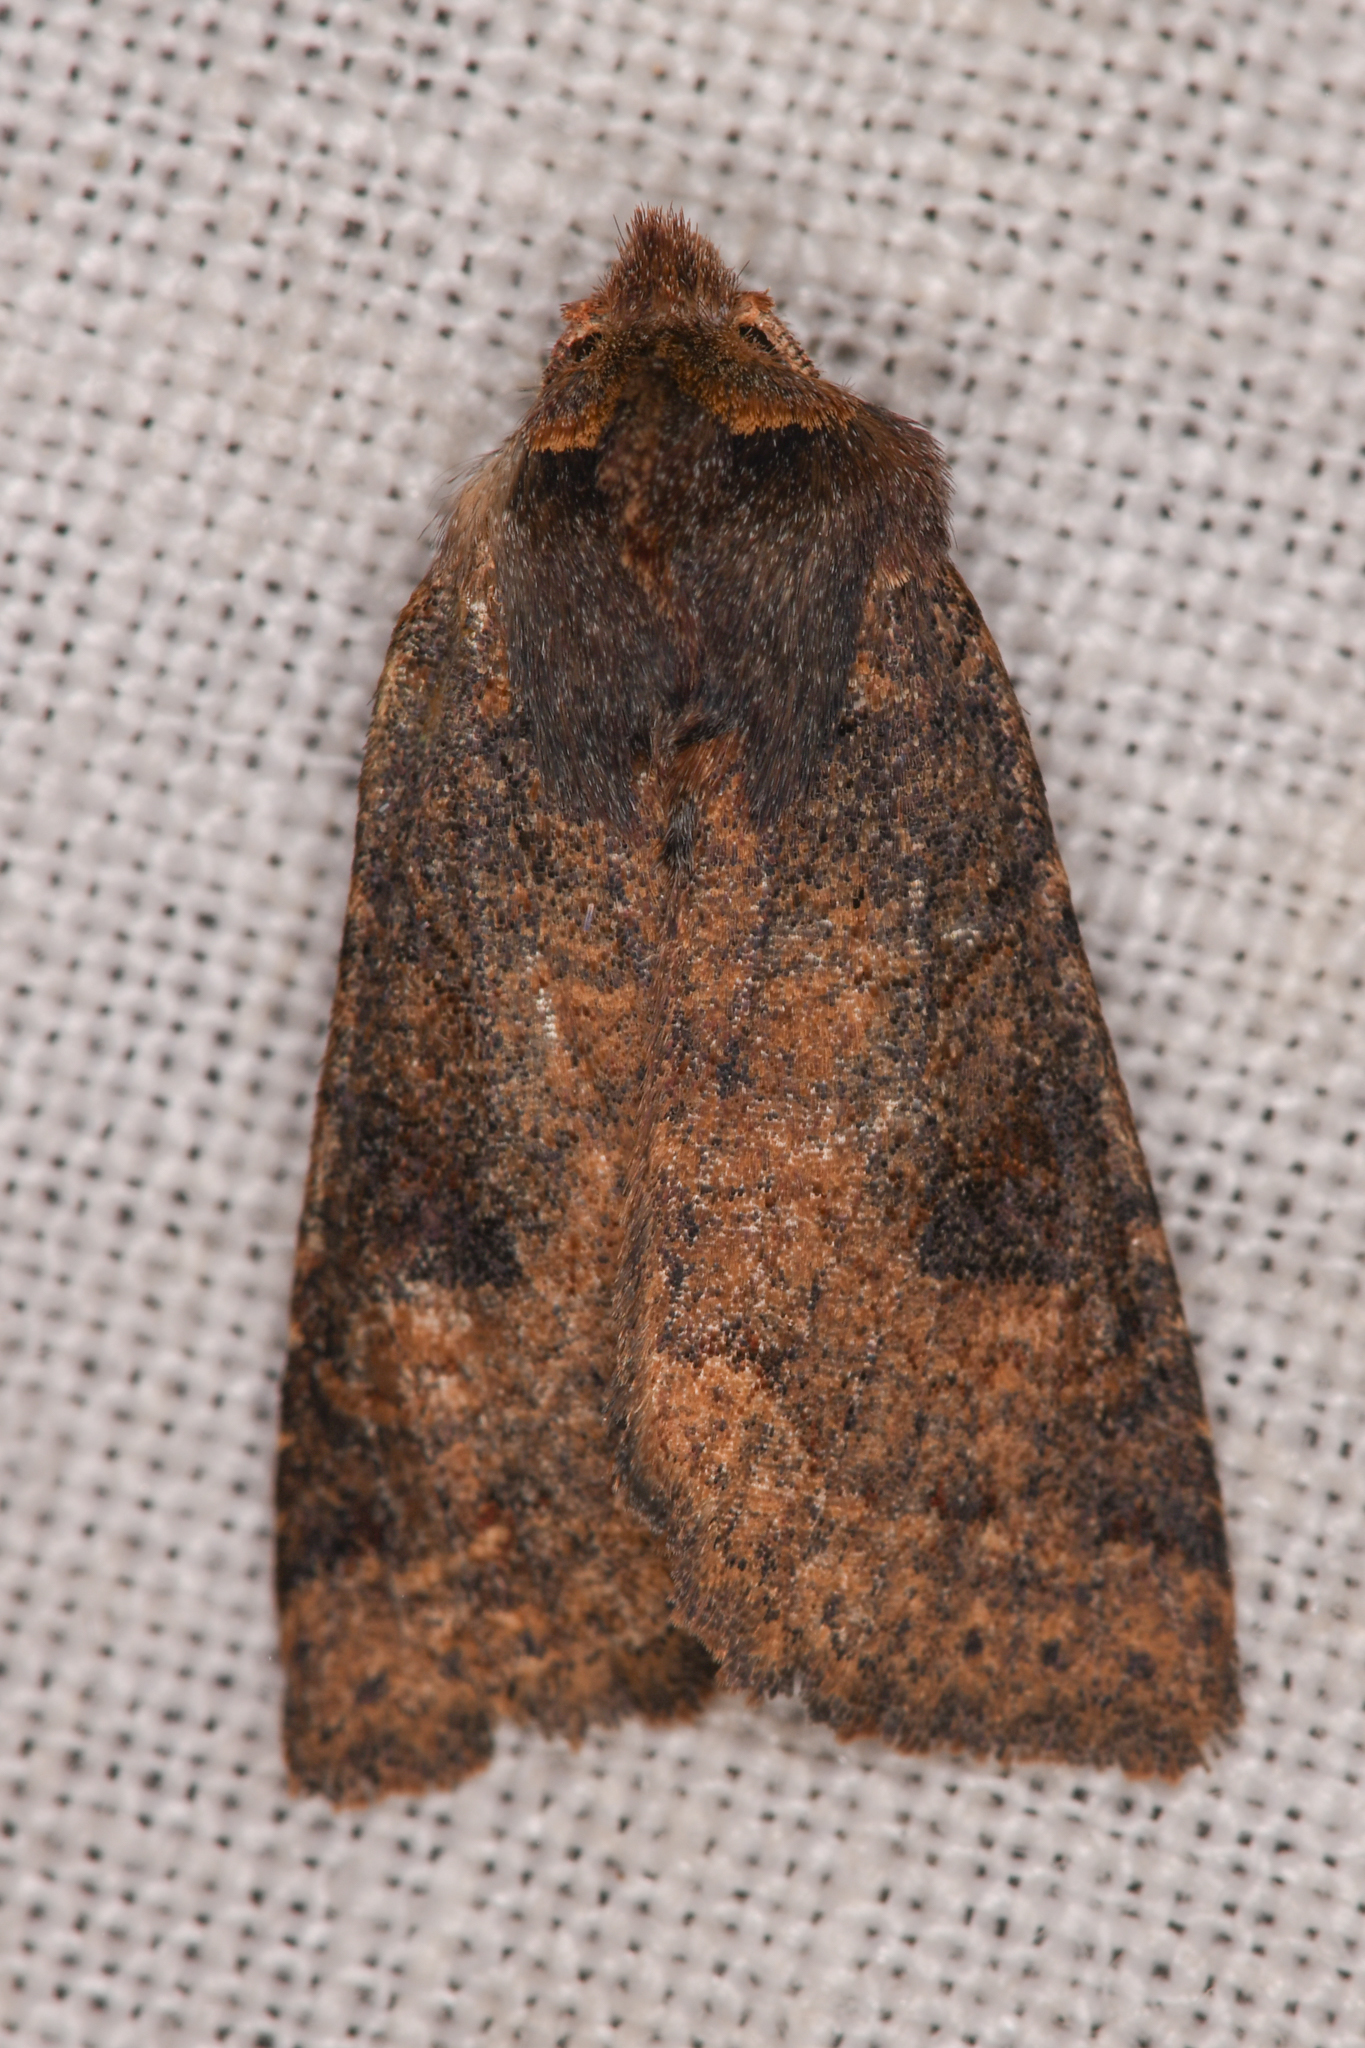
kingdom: Animalia
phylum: Arthropoda
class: Insecta
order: Lepidoptera
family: Noctuidae
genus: Orthosia
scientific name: Orthosia praeses
